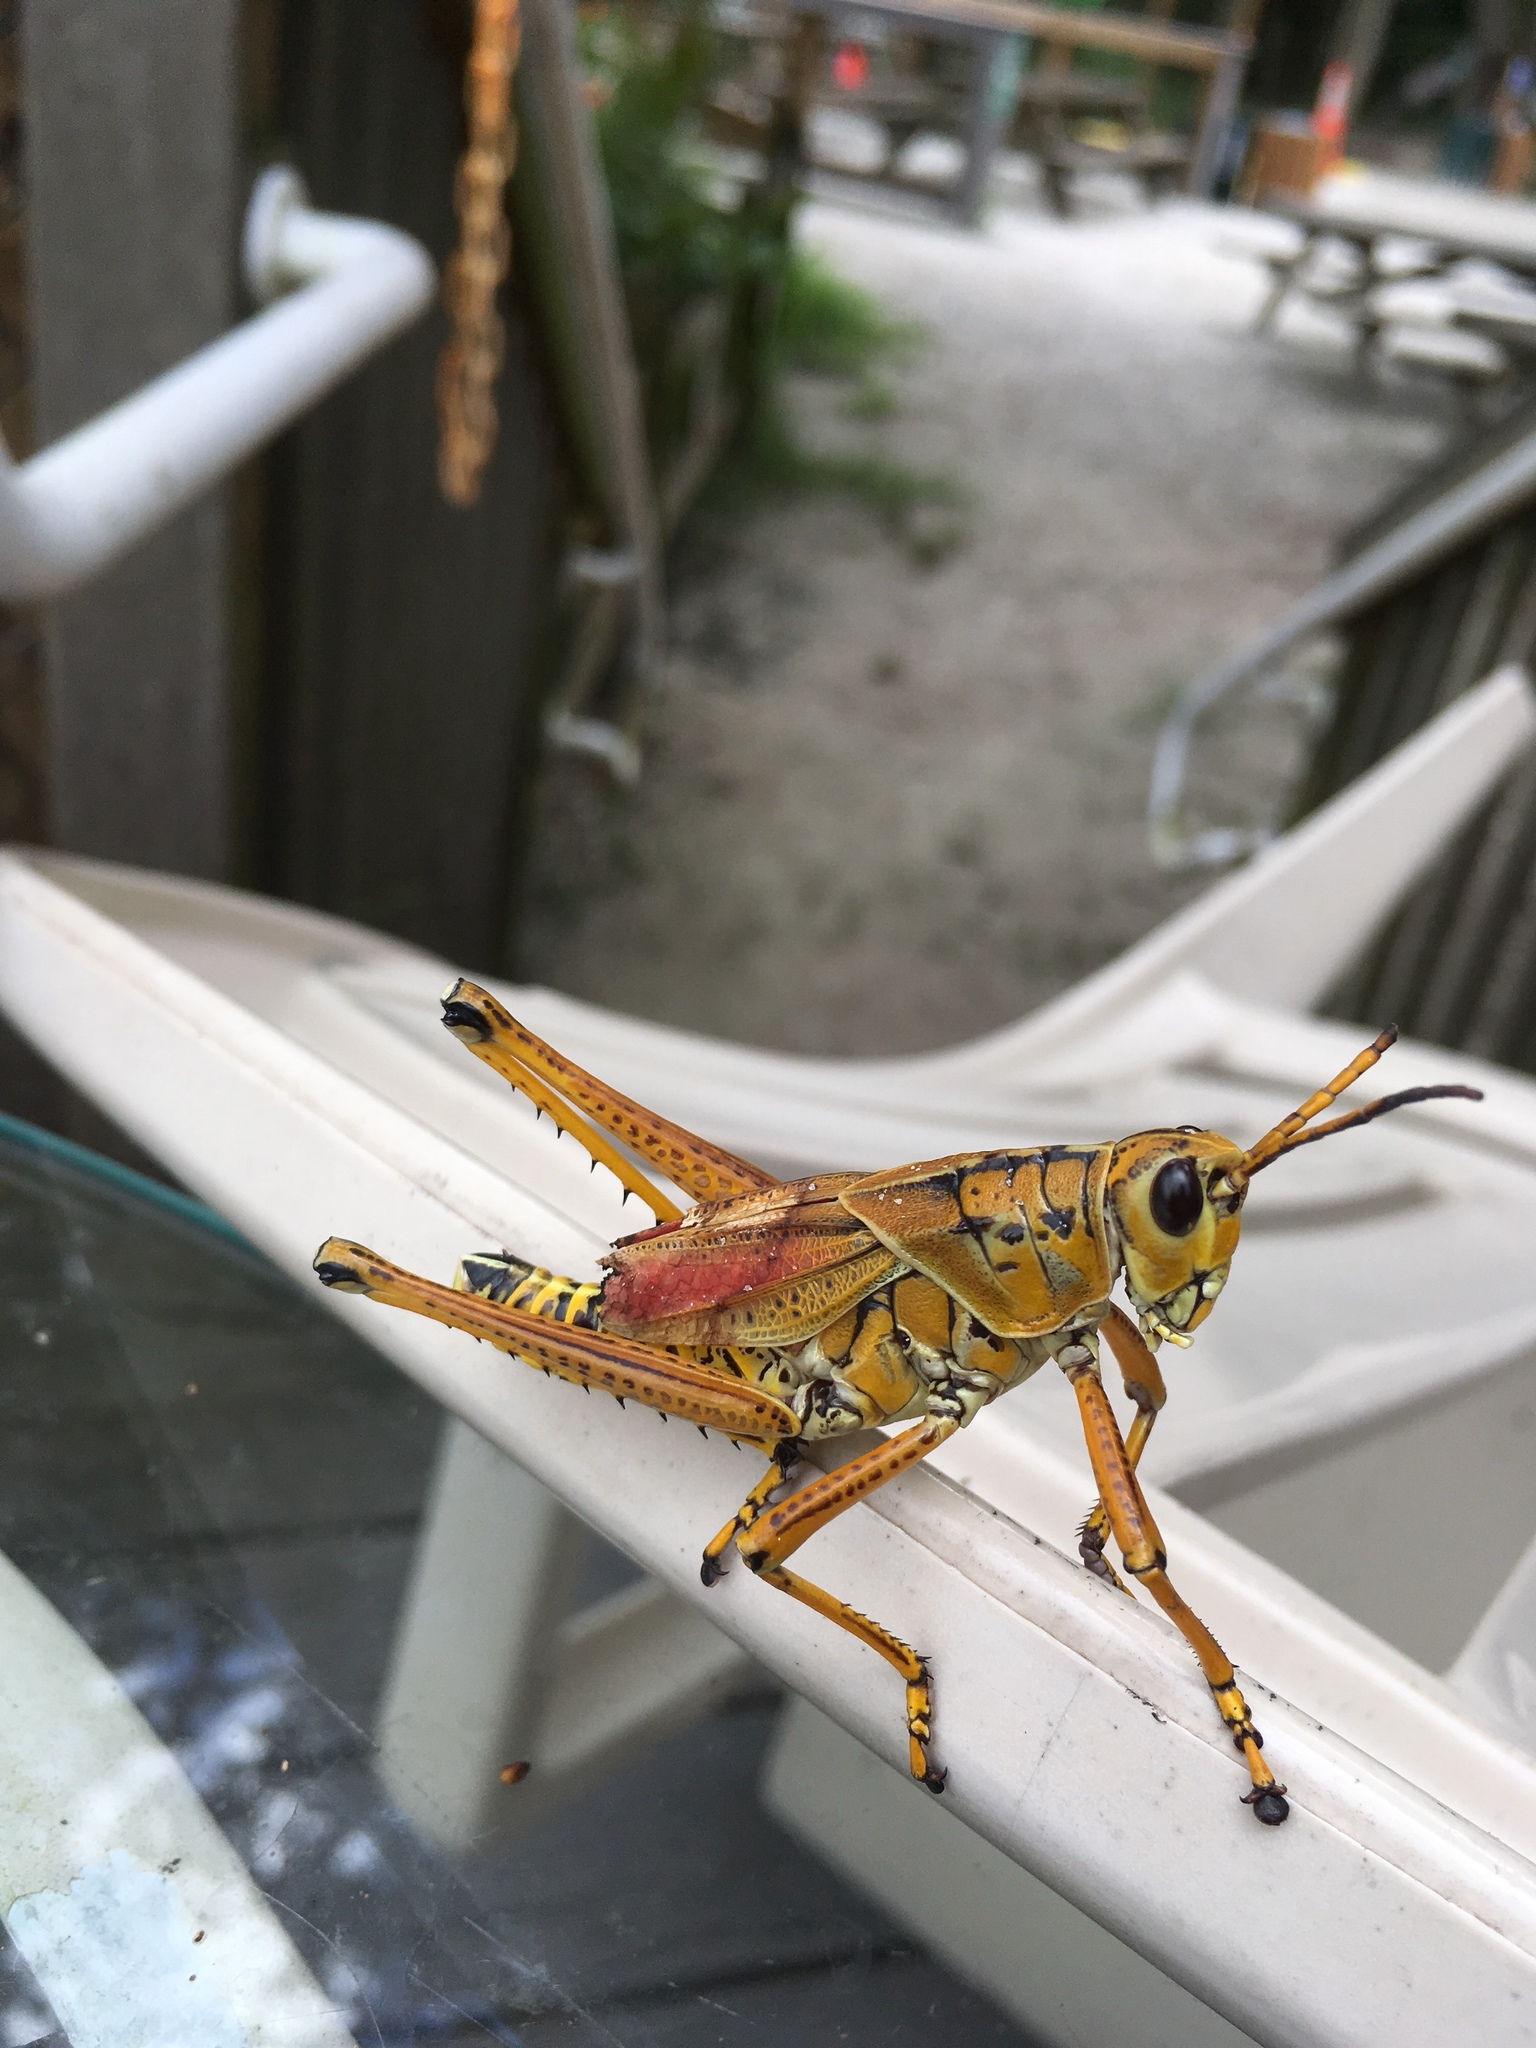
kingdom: Animalia
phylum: Arthropoda
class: Insecta
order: Orthoptera
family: Romaleidae
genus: Romalea
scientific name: Romalea microptera
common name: Eastern lubber grasshopper
